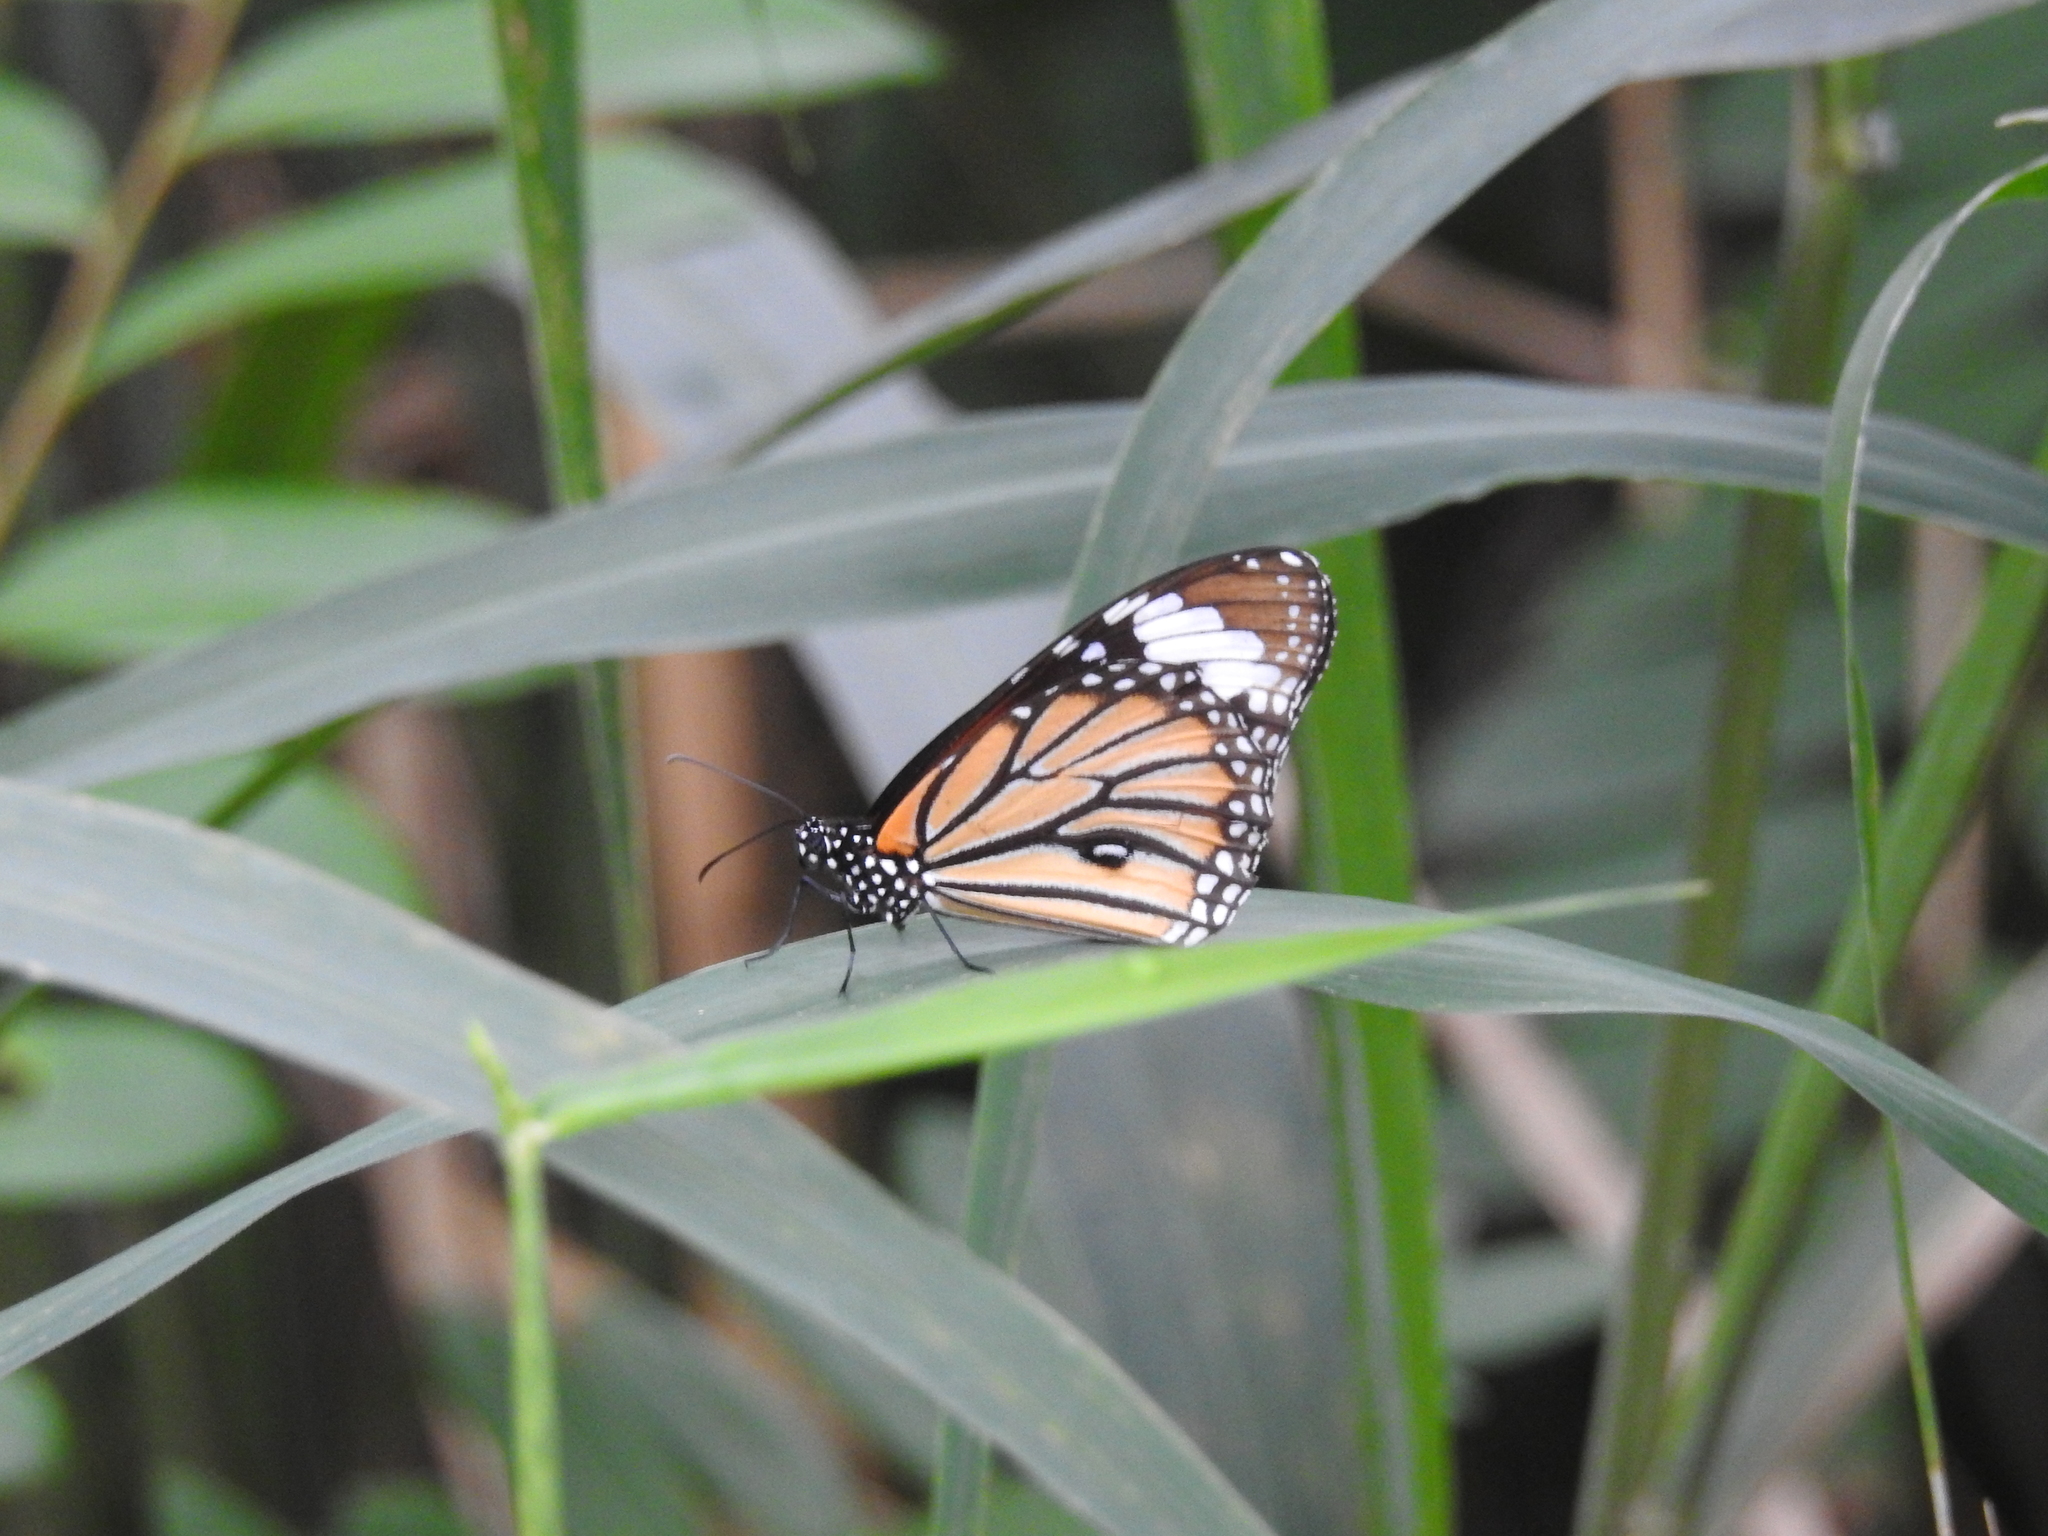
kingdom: Animalia
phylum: Arthropoda
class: Insecta
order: Lepidoptera
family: Nymphalidae
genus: Danaus
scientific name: Danaus genutia
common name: Common tiger butterfly
